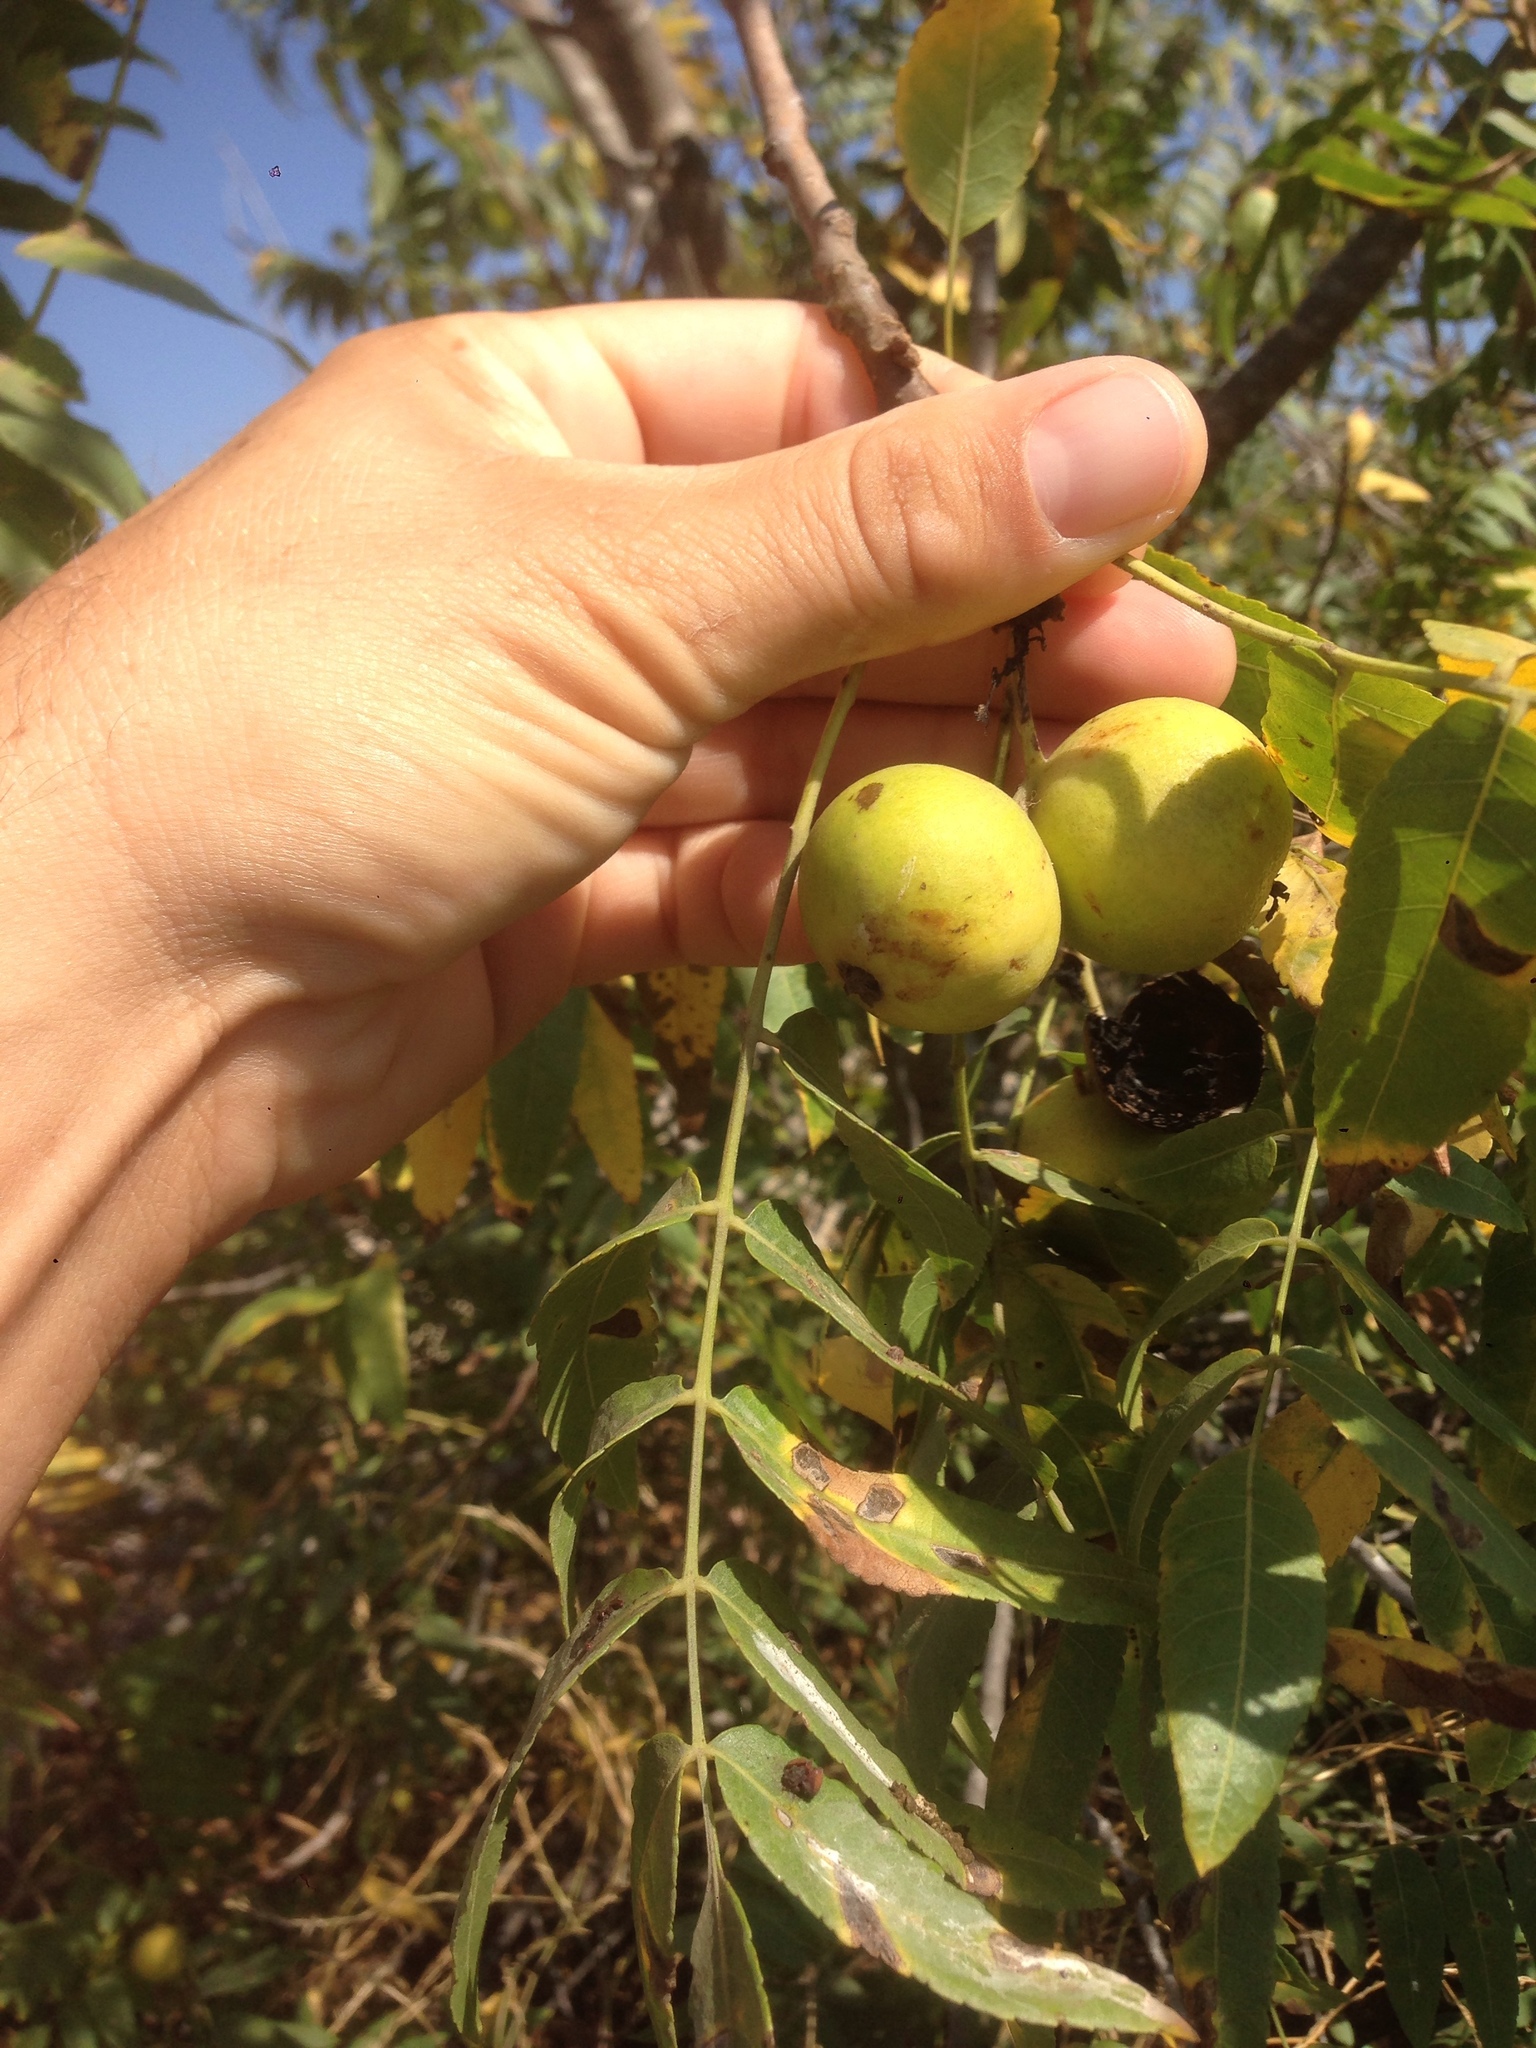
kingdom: Plantae
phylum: Tracheophyta
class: Magnoliopsida
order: Fagales
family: Juglandaceae
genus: Juglans
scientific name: Juglans californica
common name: Southern california black walnut
